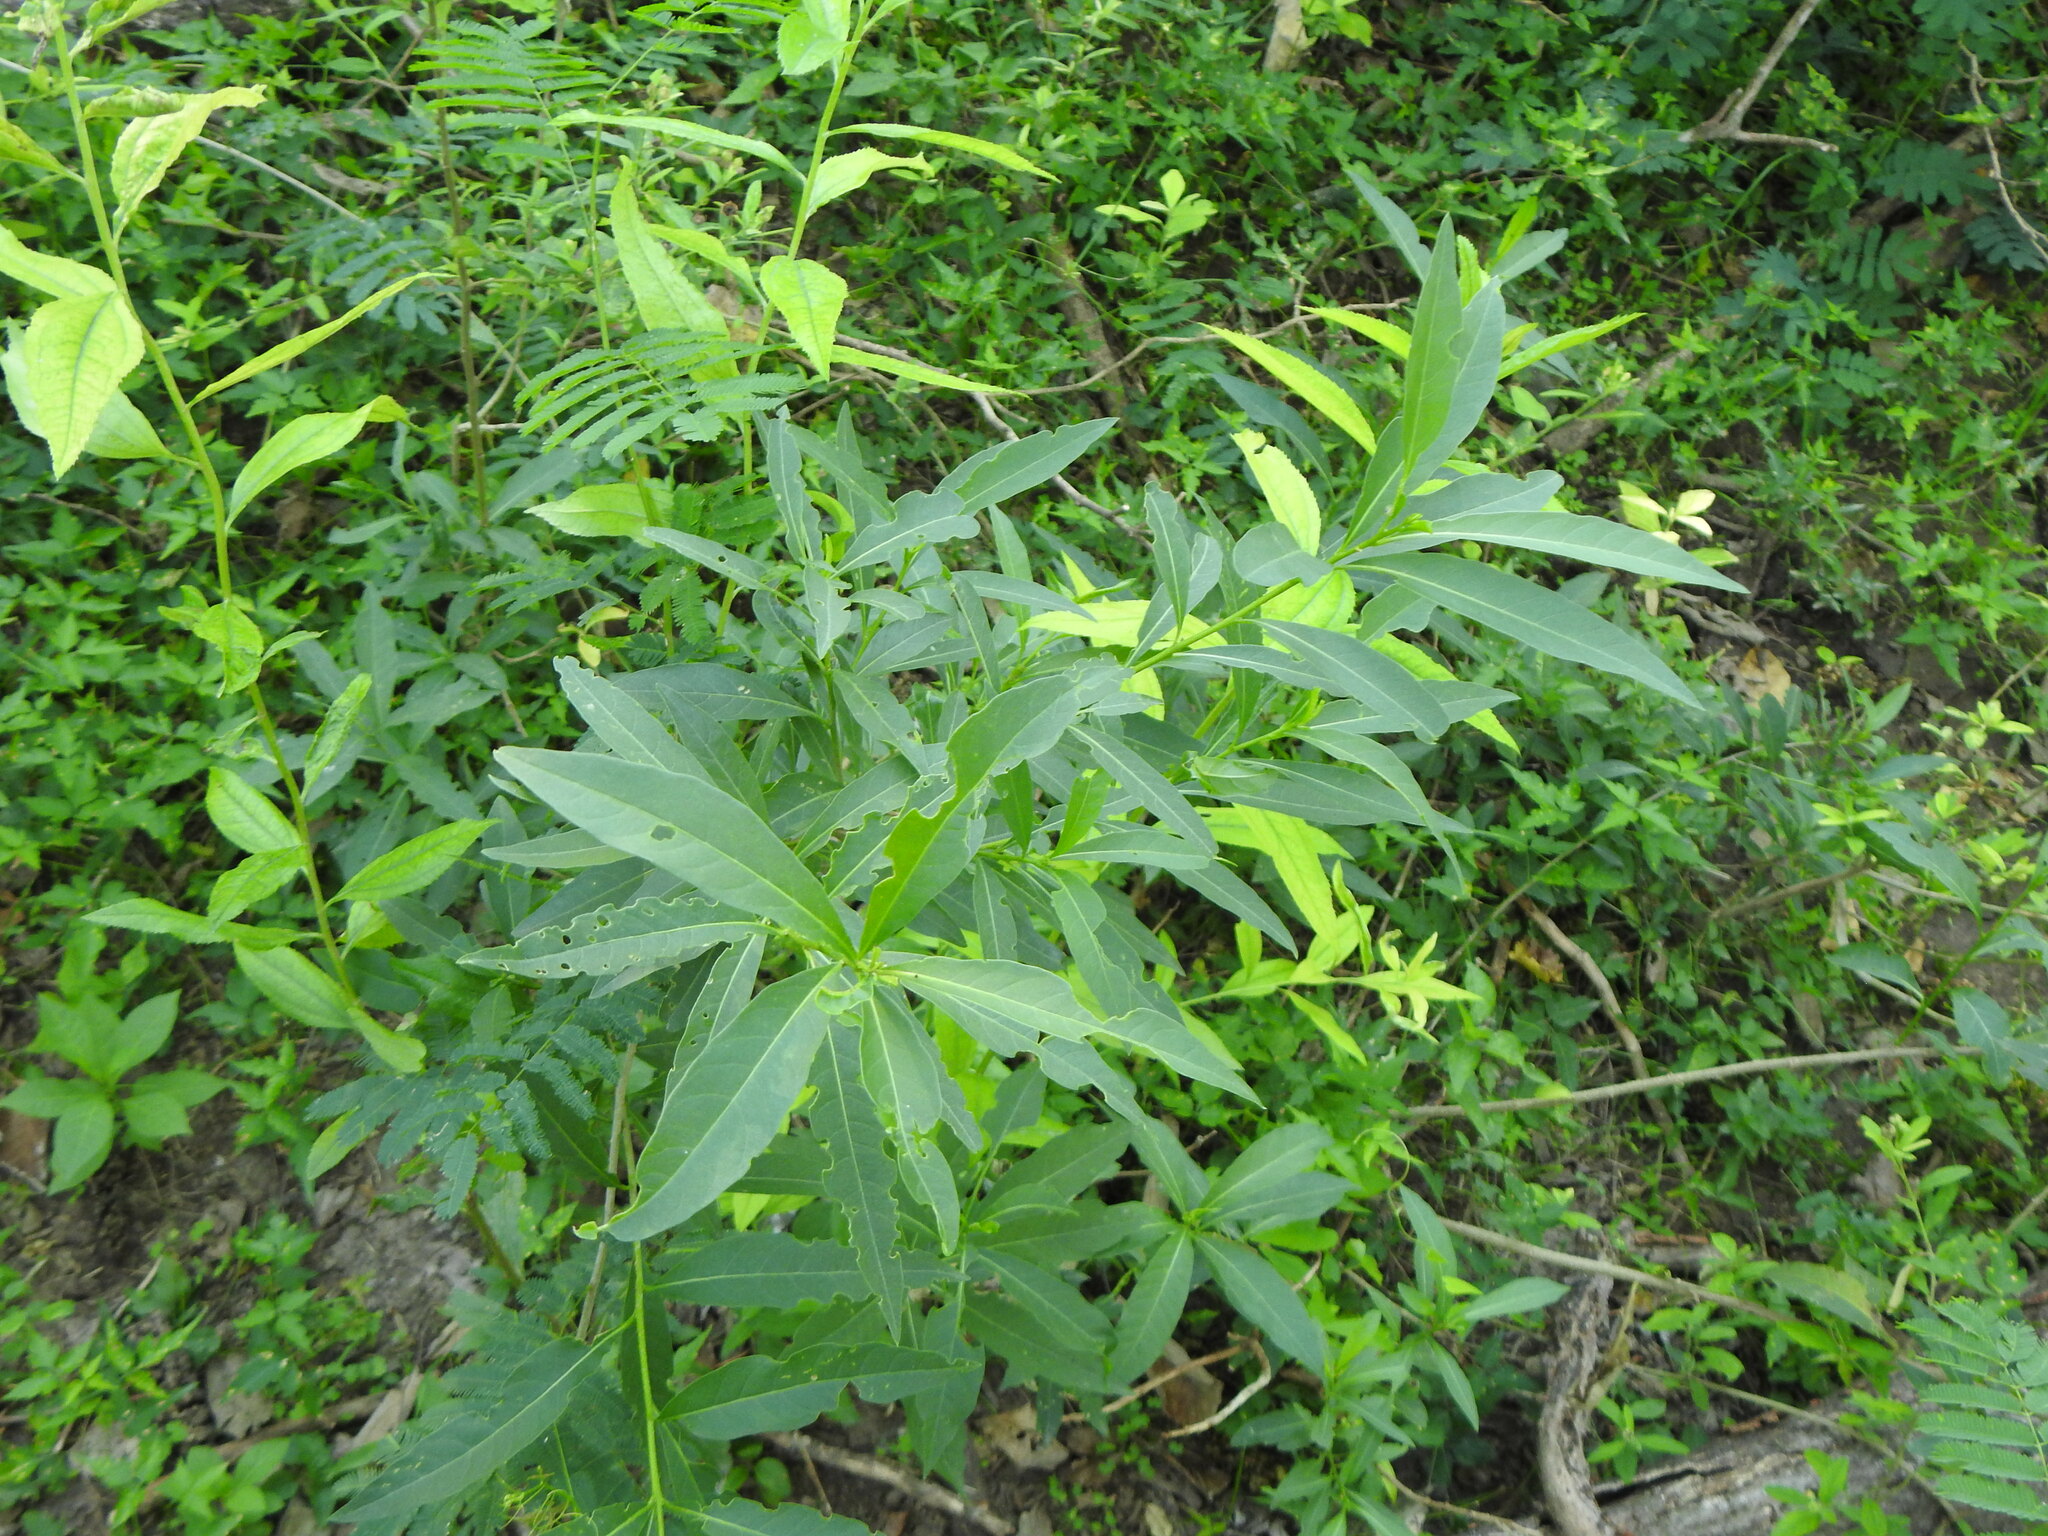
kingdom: Plantae
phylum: Tracheophyta
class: Magnoliopsida
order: Solanales
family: Solanaceae
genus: Cestrum
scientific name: Cestrum parqui
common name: Chilean cestrum
